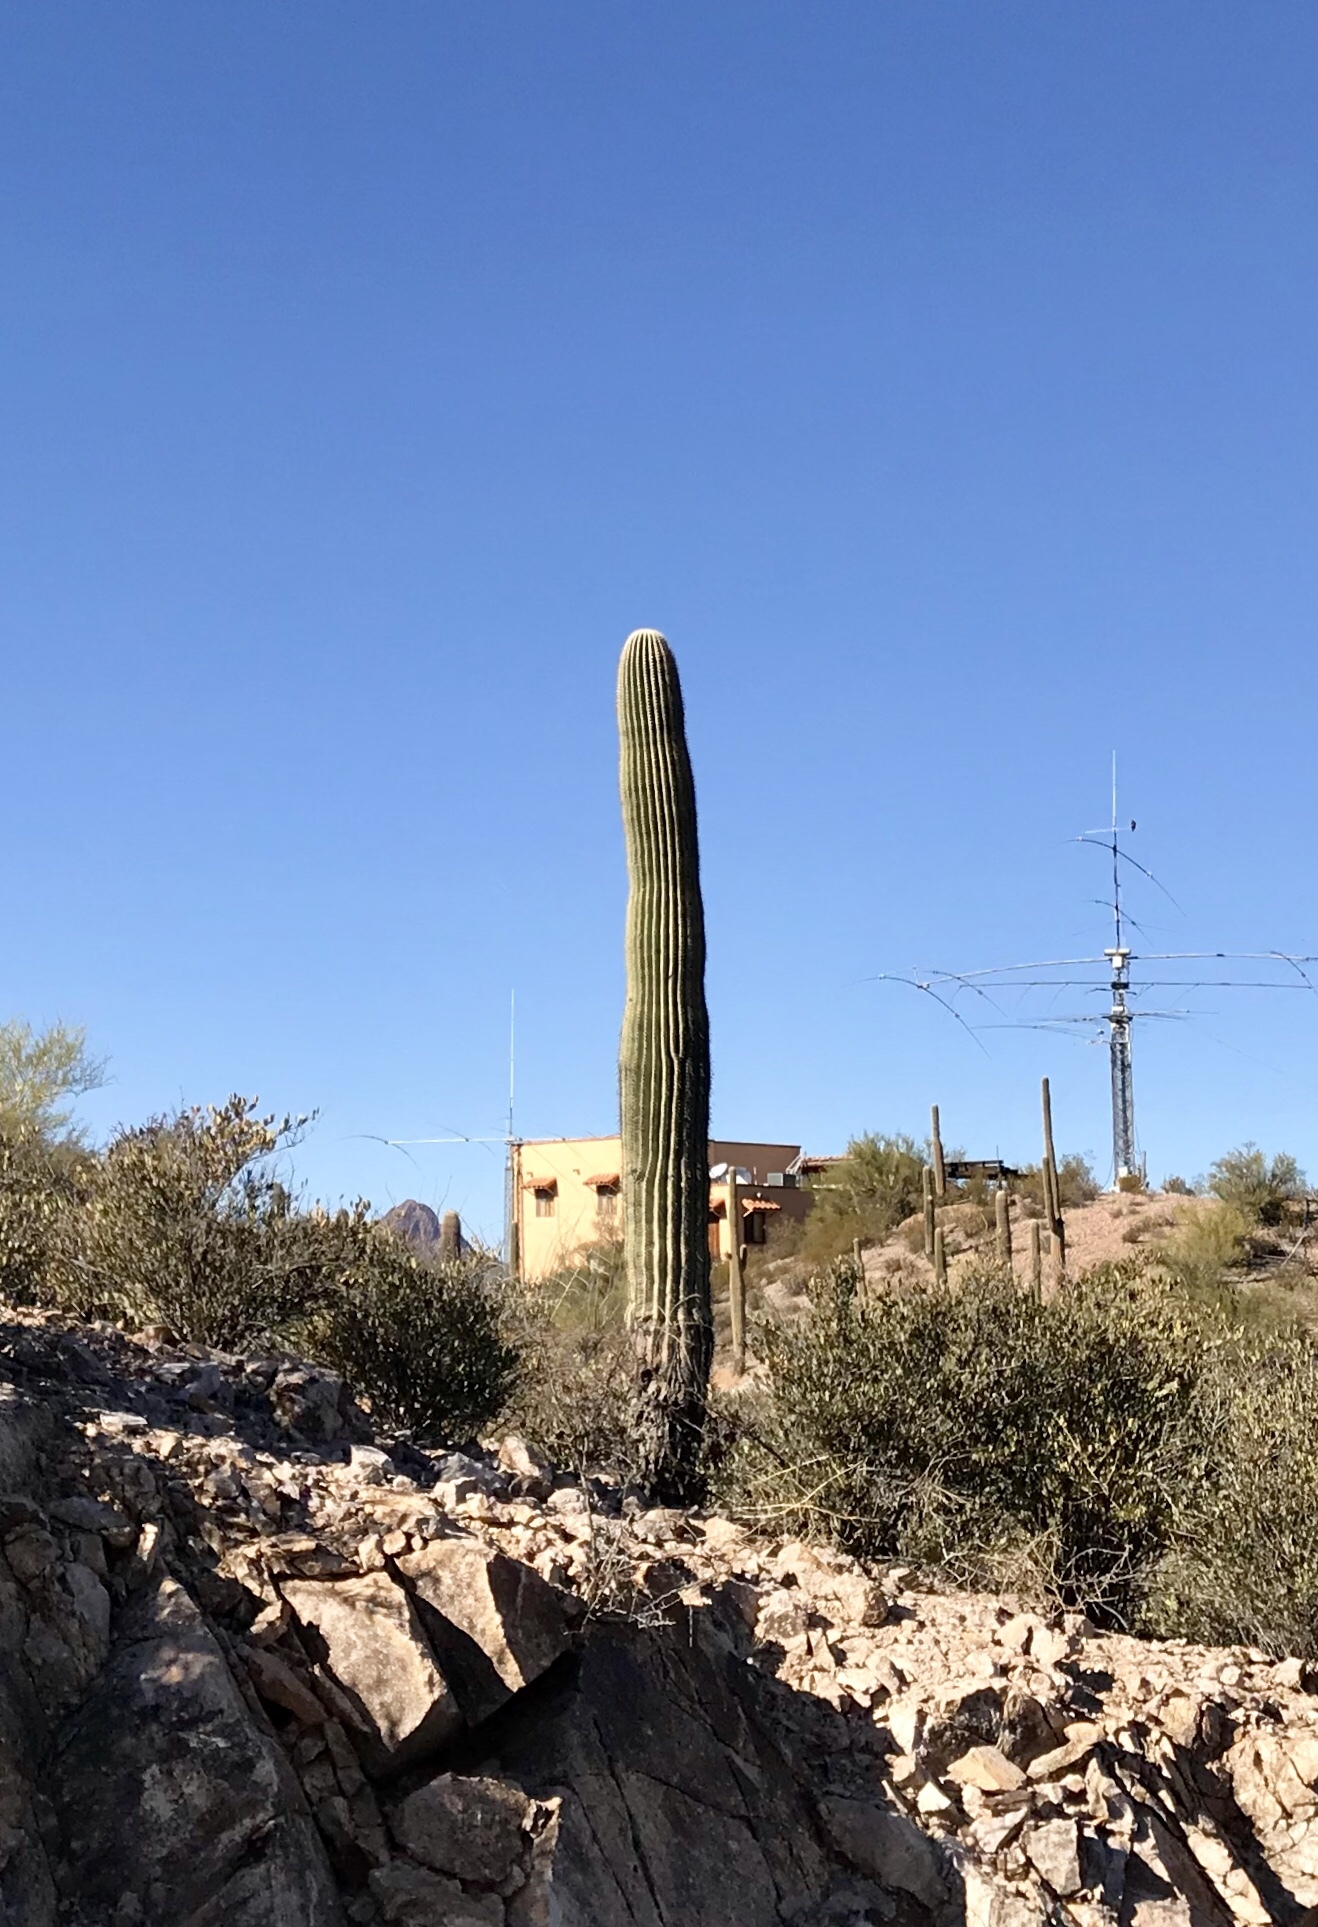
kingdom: Plantae
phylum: Tracheophyta
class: Magnoliopsida
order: Caryophyllales
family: Cactaceae
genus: Carnegiea
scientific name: Carnegiea gigantea
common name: Saguaro
